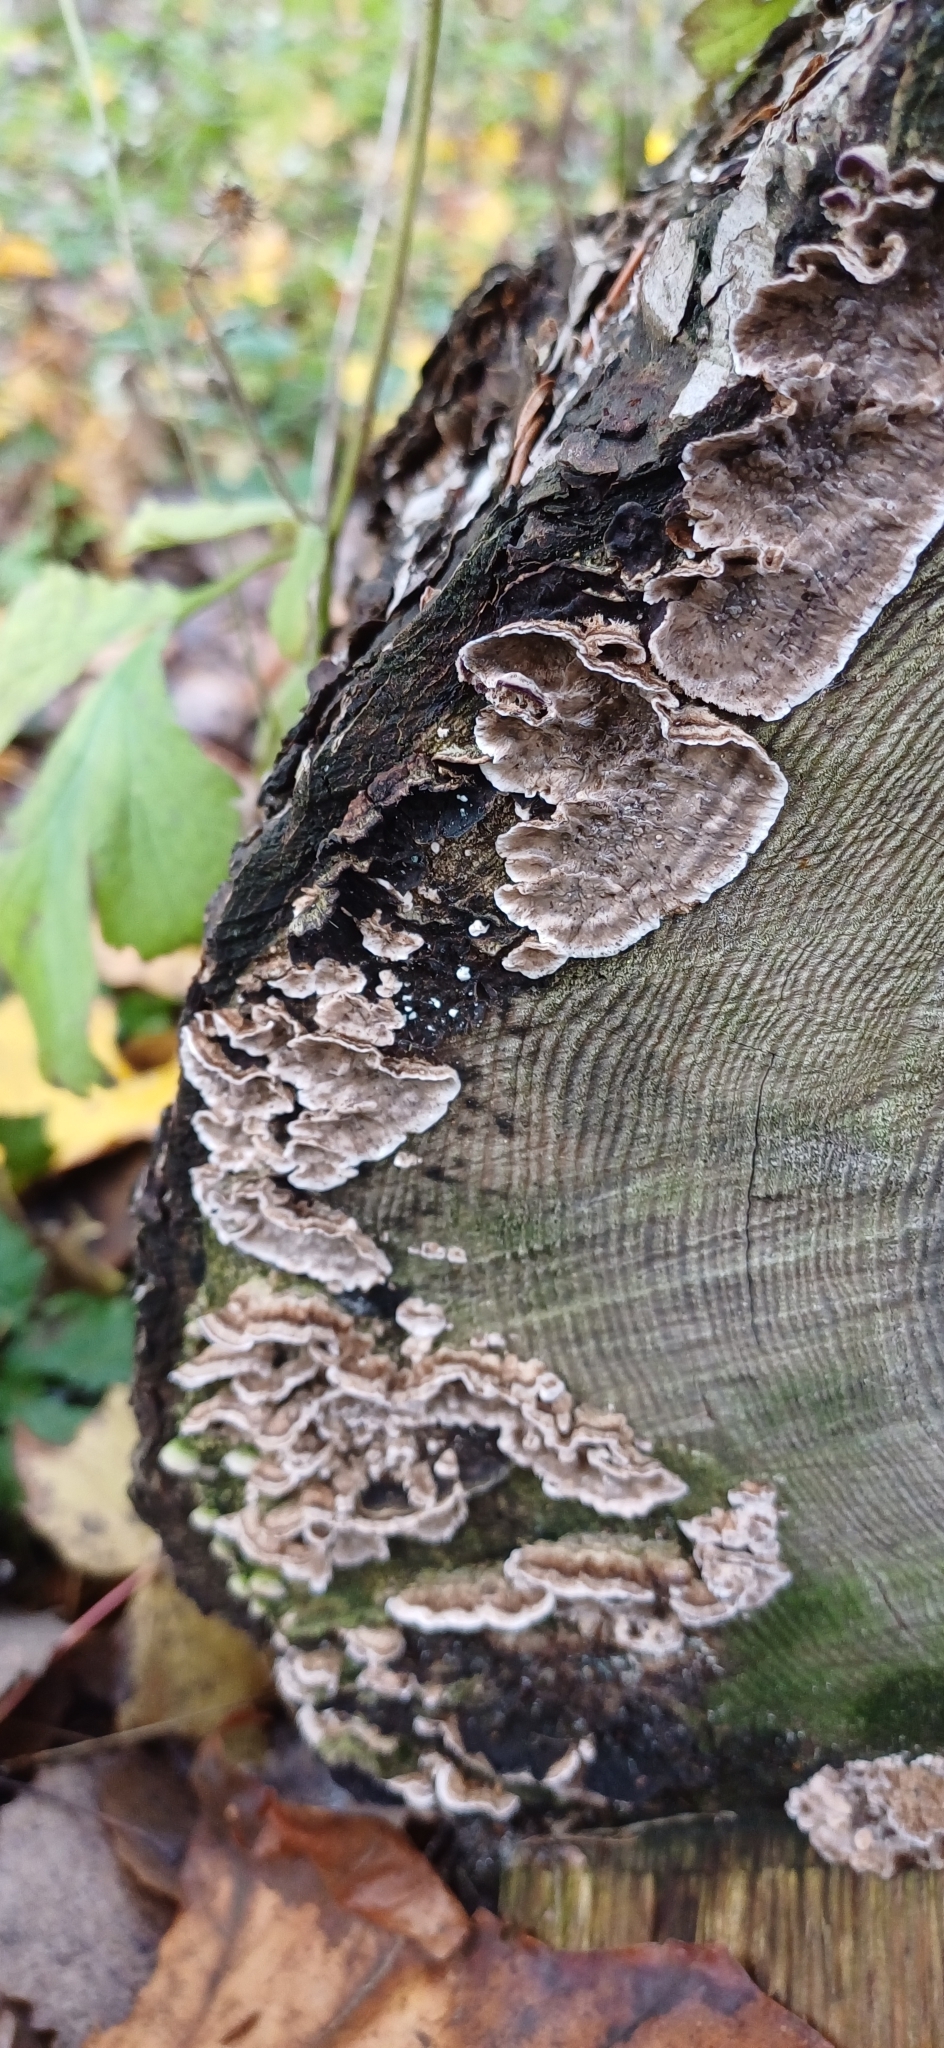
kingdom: Fungi
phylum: Basidiomycota
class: Agaricomycetes
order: Russulales
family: Stereaceae
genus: Stereum
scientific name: Stereum sanguinolentum
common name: Bleeding conifer crust
